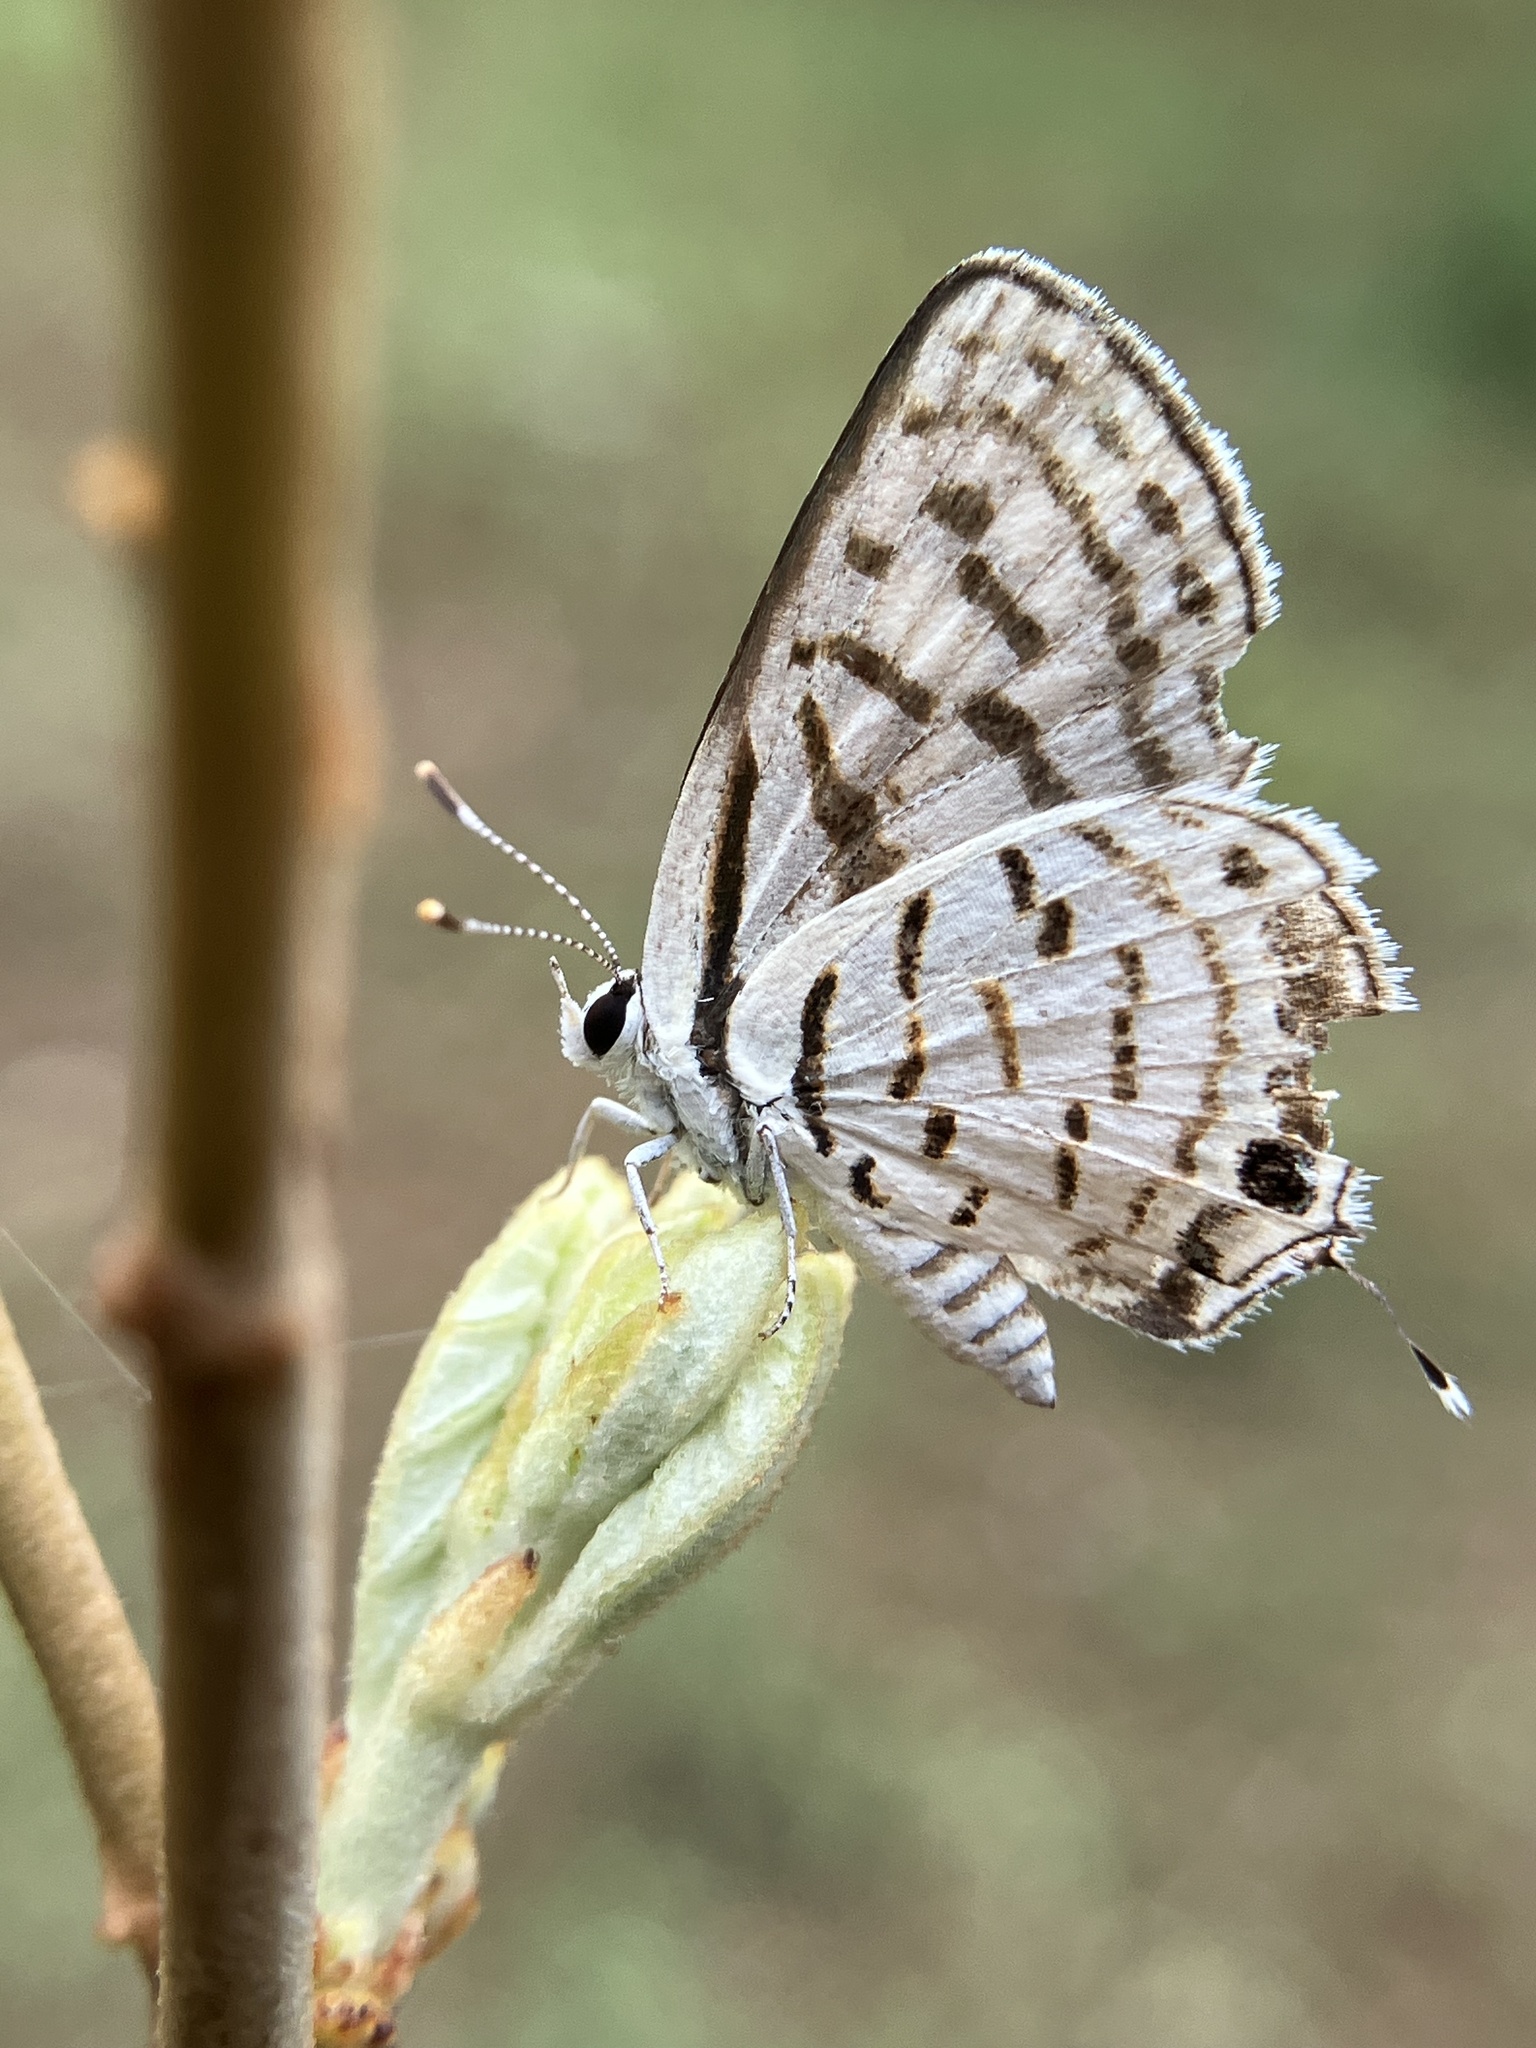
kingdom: Animalia
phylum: Arthropoda
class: Insecta
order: Lepidoptera
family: Lycaenidae
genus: Tarucus
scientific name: Tarucus
